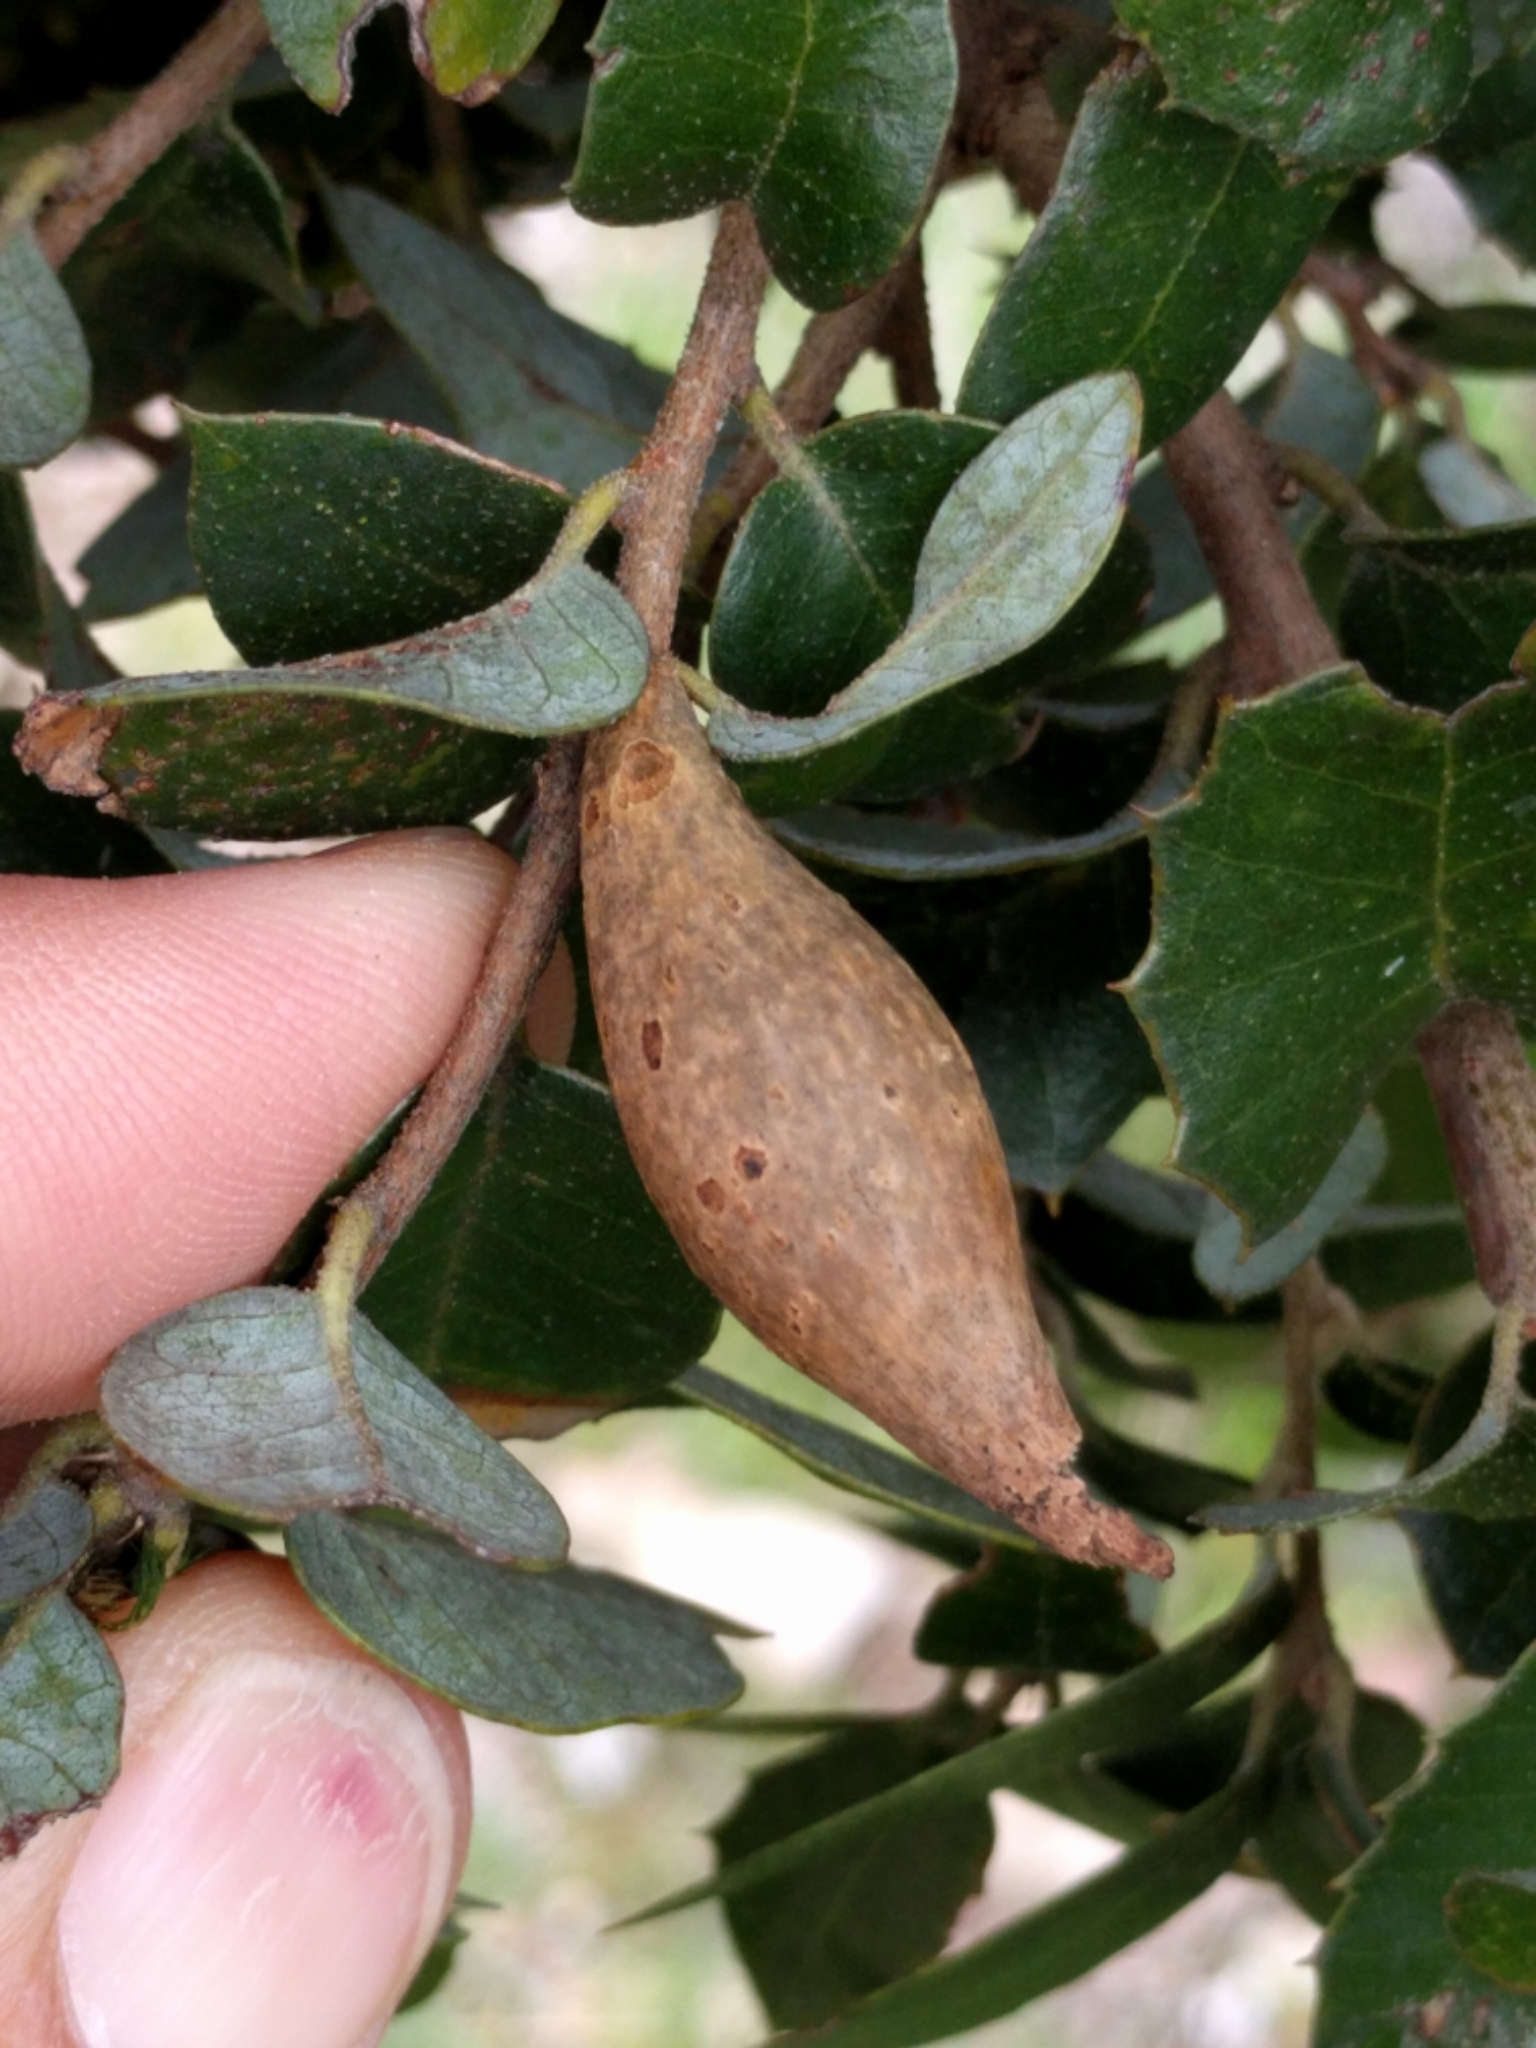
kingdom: Animalia
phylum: Arthropoda
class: Insecta
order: Hymenoptera
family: Cynipidae
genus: Heteroecus
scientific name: Heteroecus pacificus
